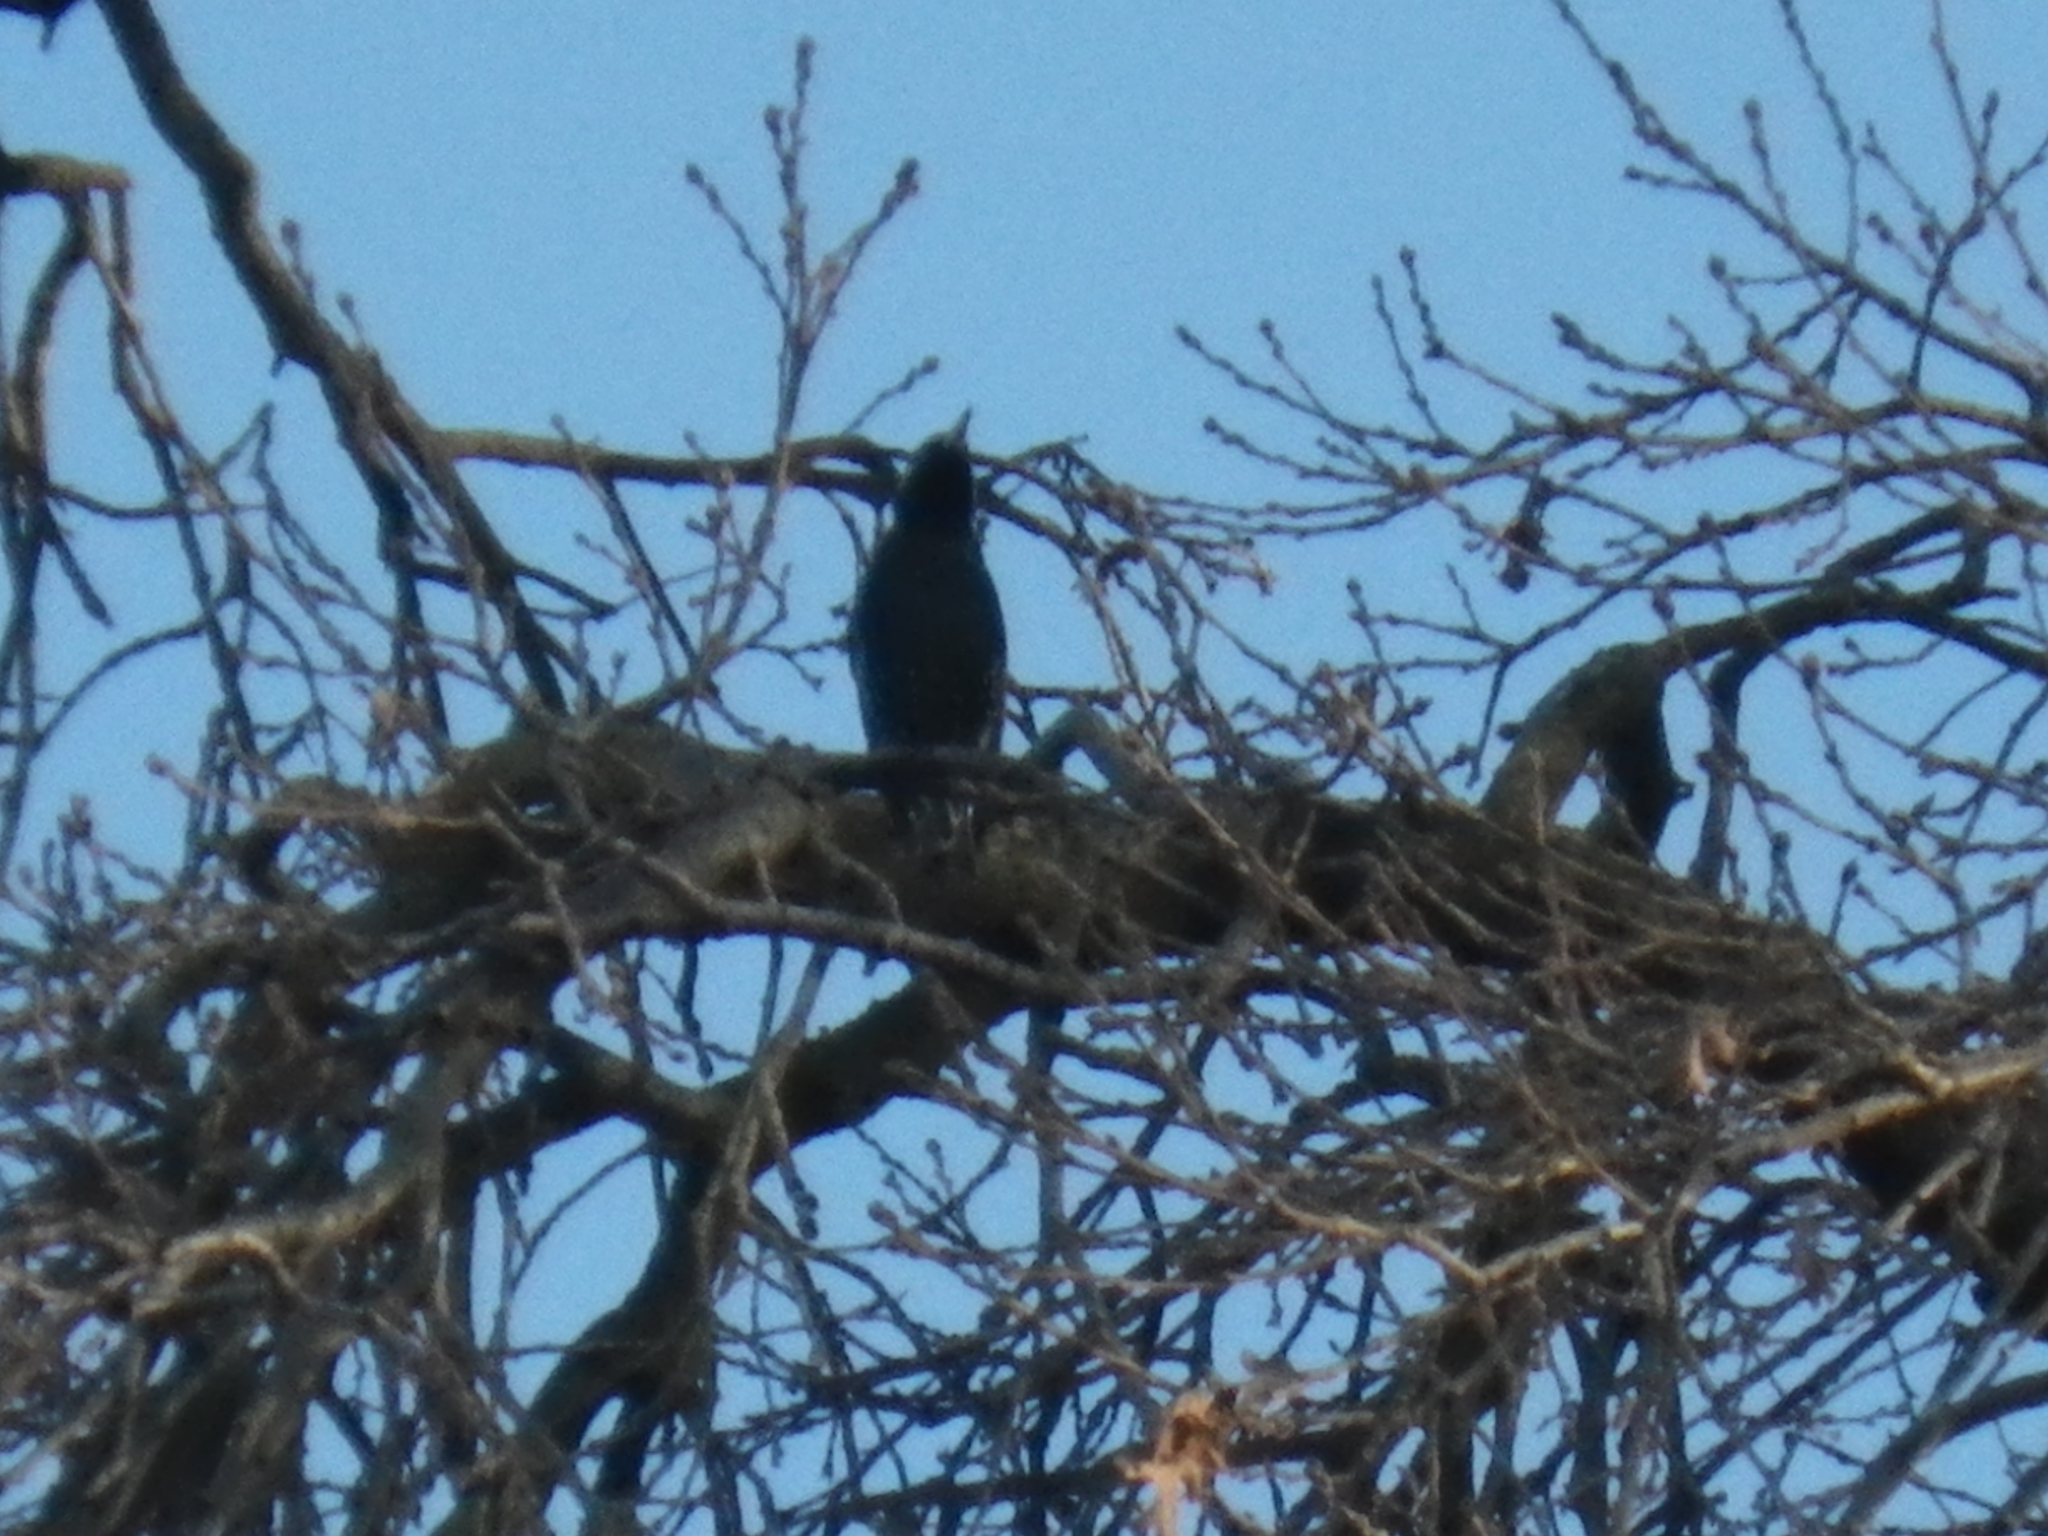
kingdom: Animalia
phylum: Chordata
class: Aves
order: Passeriformes
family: Sturnidae
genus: Sturnus
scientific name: Sturnus vulgaris
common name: Common starling
